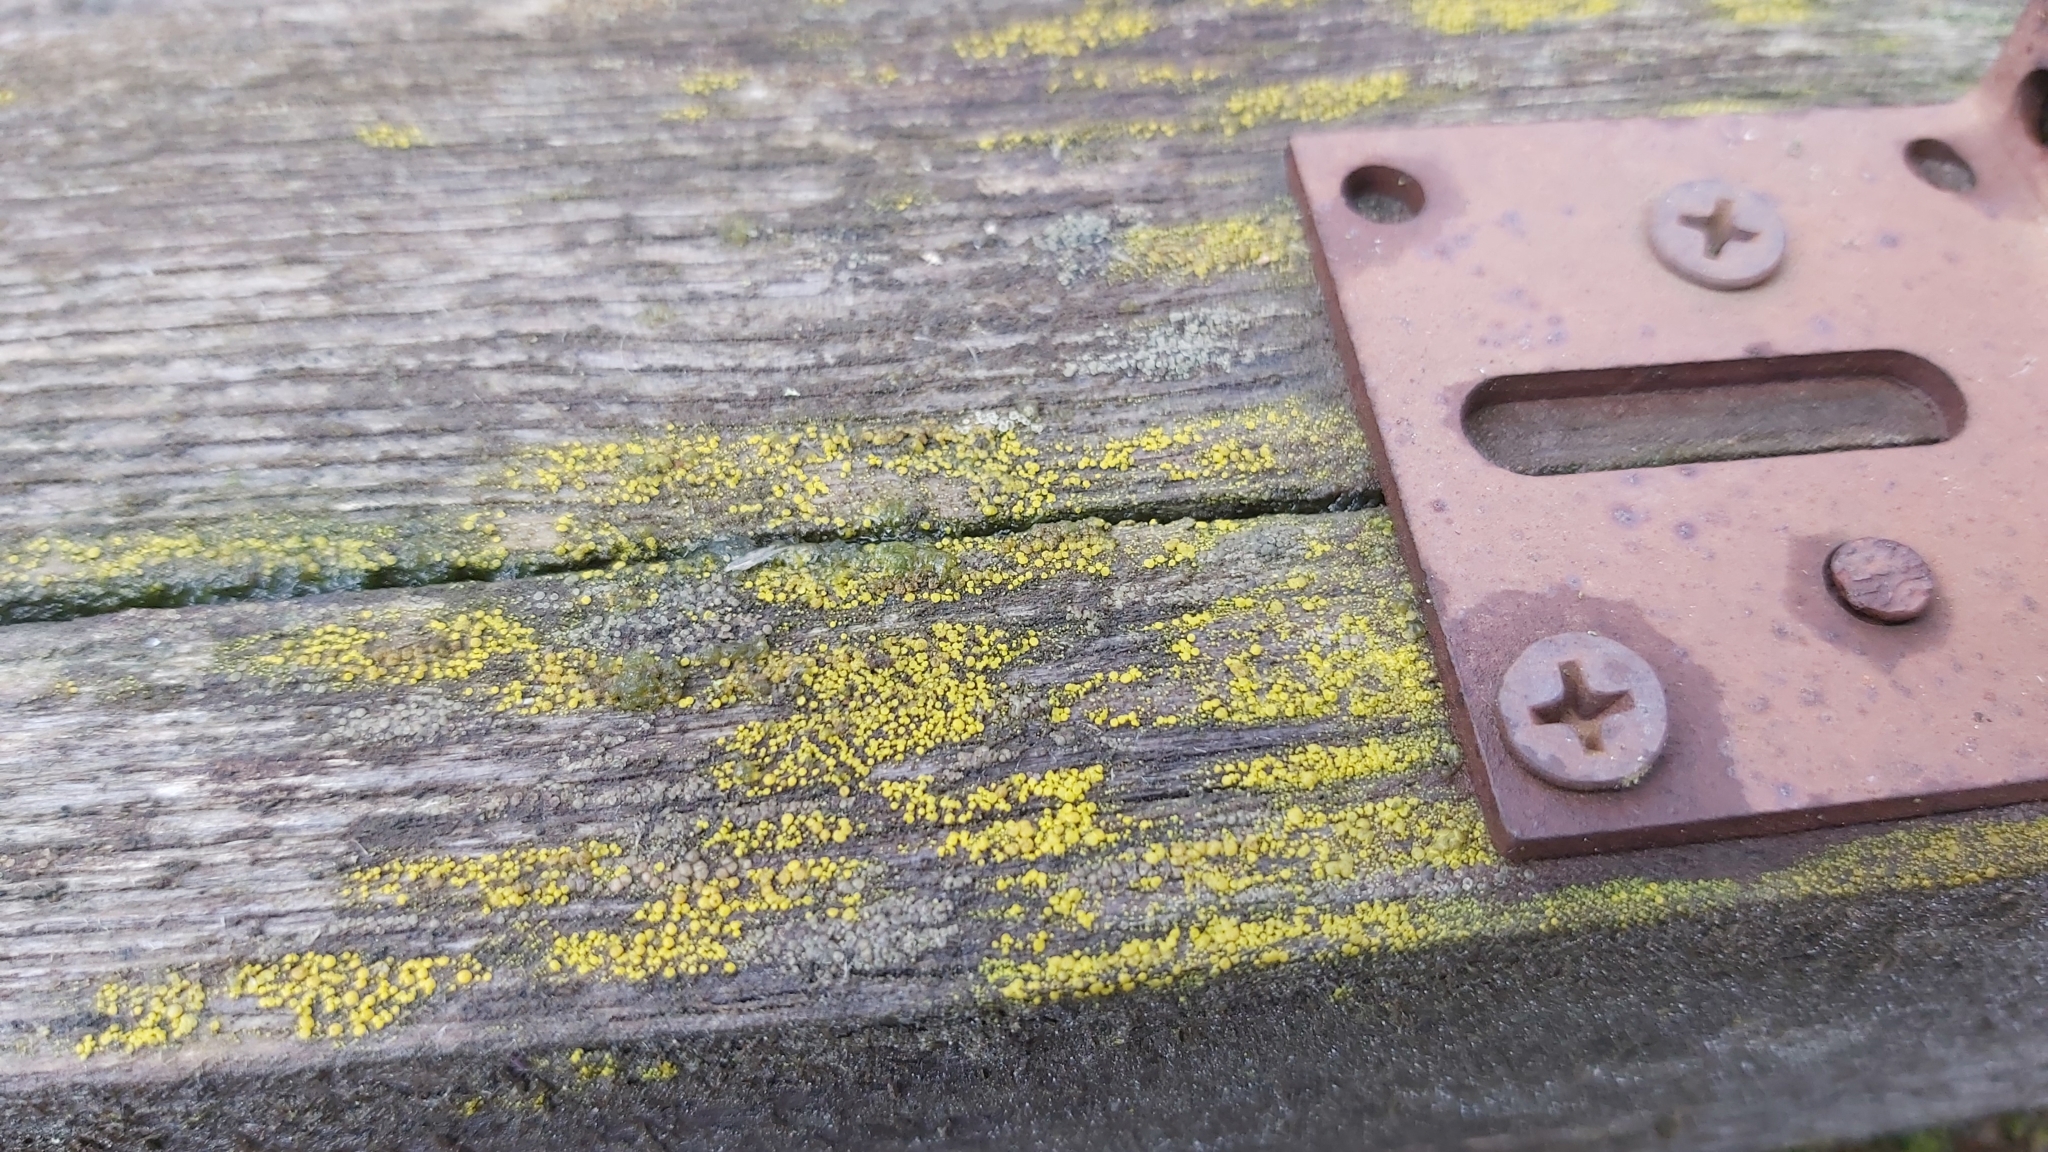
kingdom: Fungi
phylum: Ascomycota
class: Candelariomycetes
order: Candelariales
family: Candelariaceae
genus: Candelariella
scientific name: Candelariella vitellina
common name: Common goldspeck
